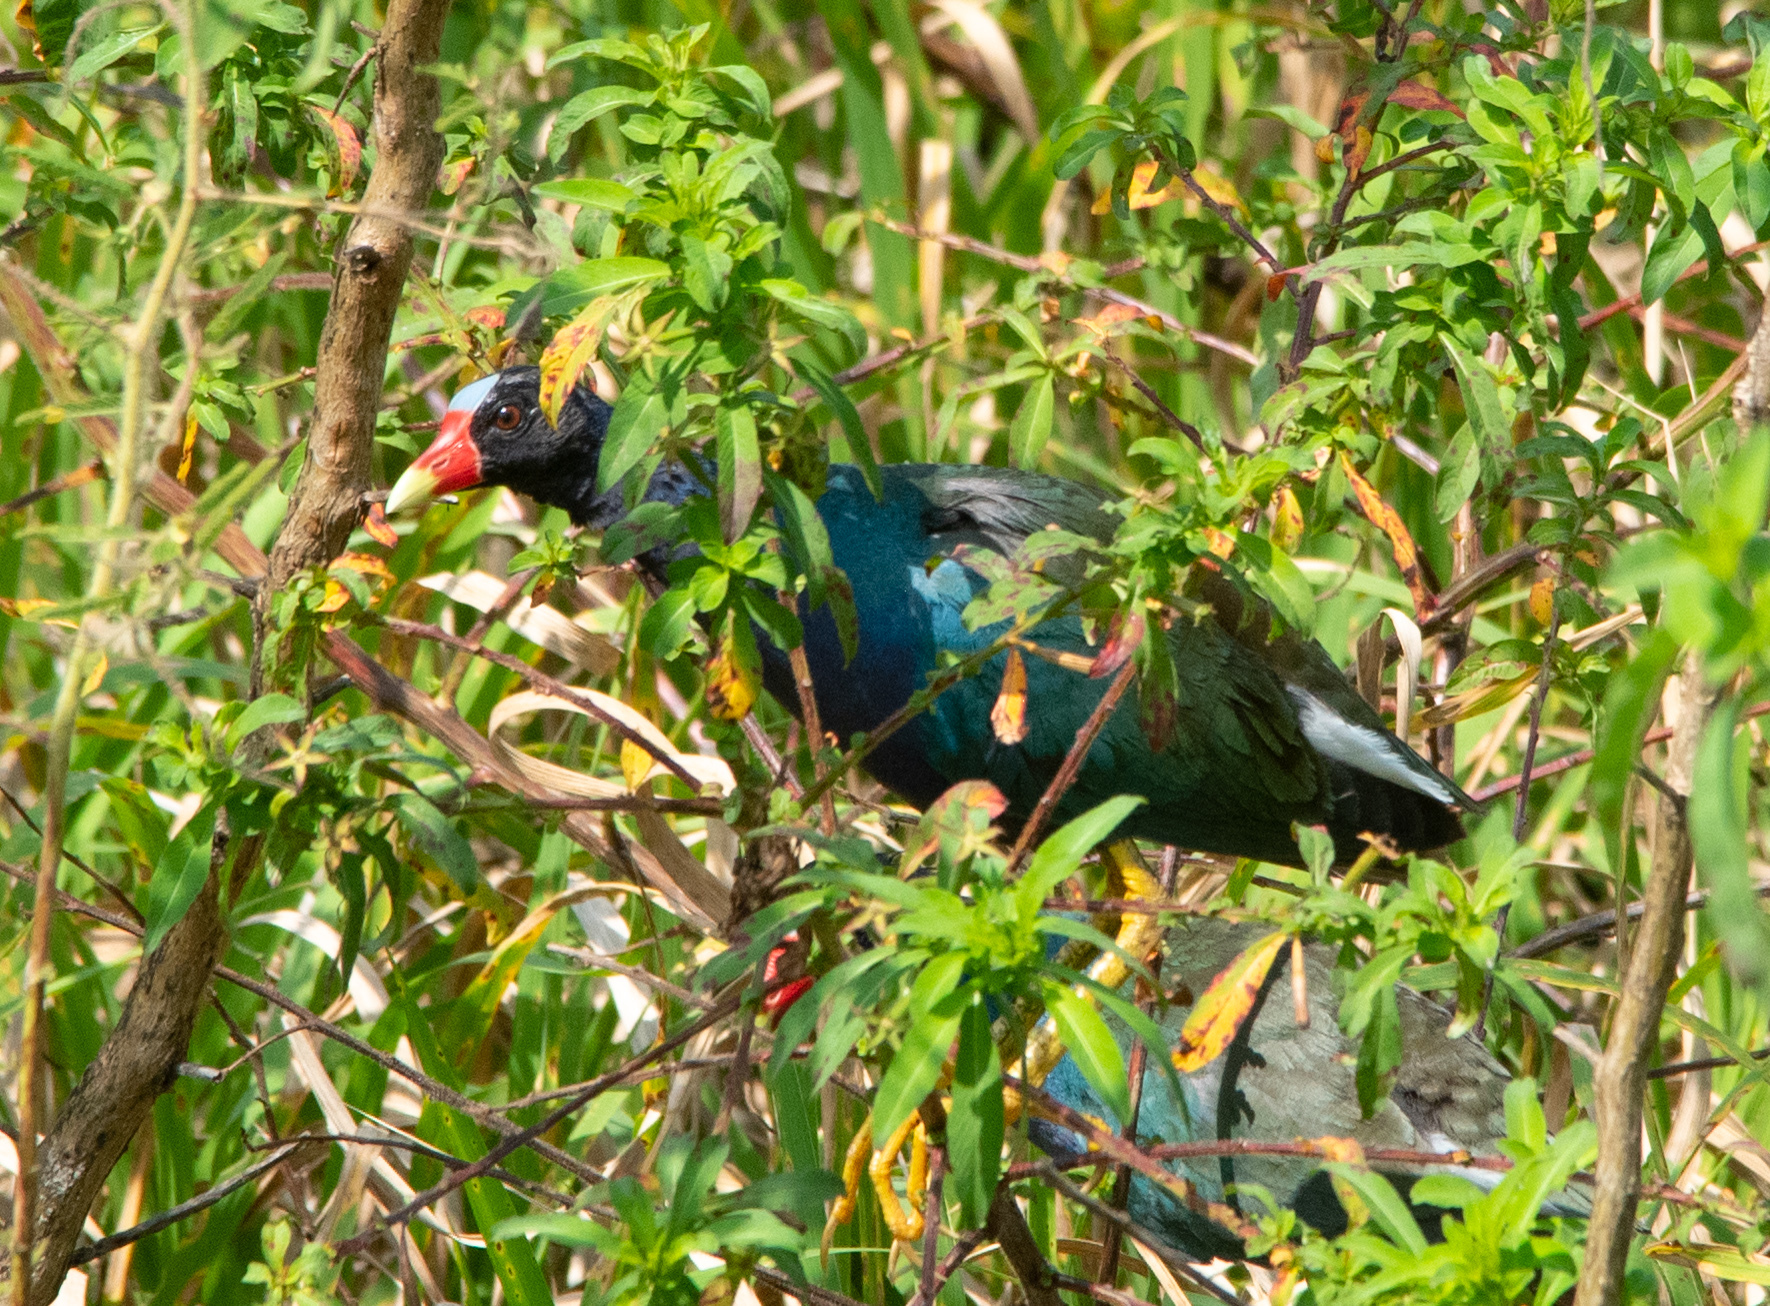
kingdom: Animalia
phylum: Chordata
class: Aves
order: Gruiformes
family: Rallidae
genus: Porphyrio
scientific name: Porphyrio martinica
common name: Purple gallinule
